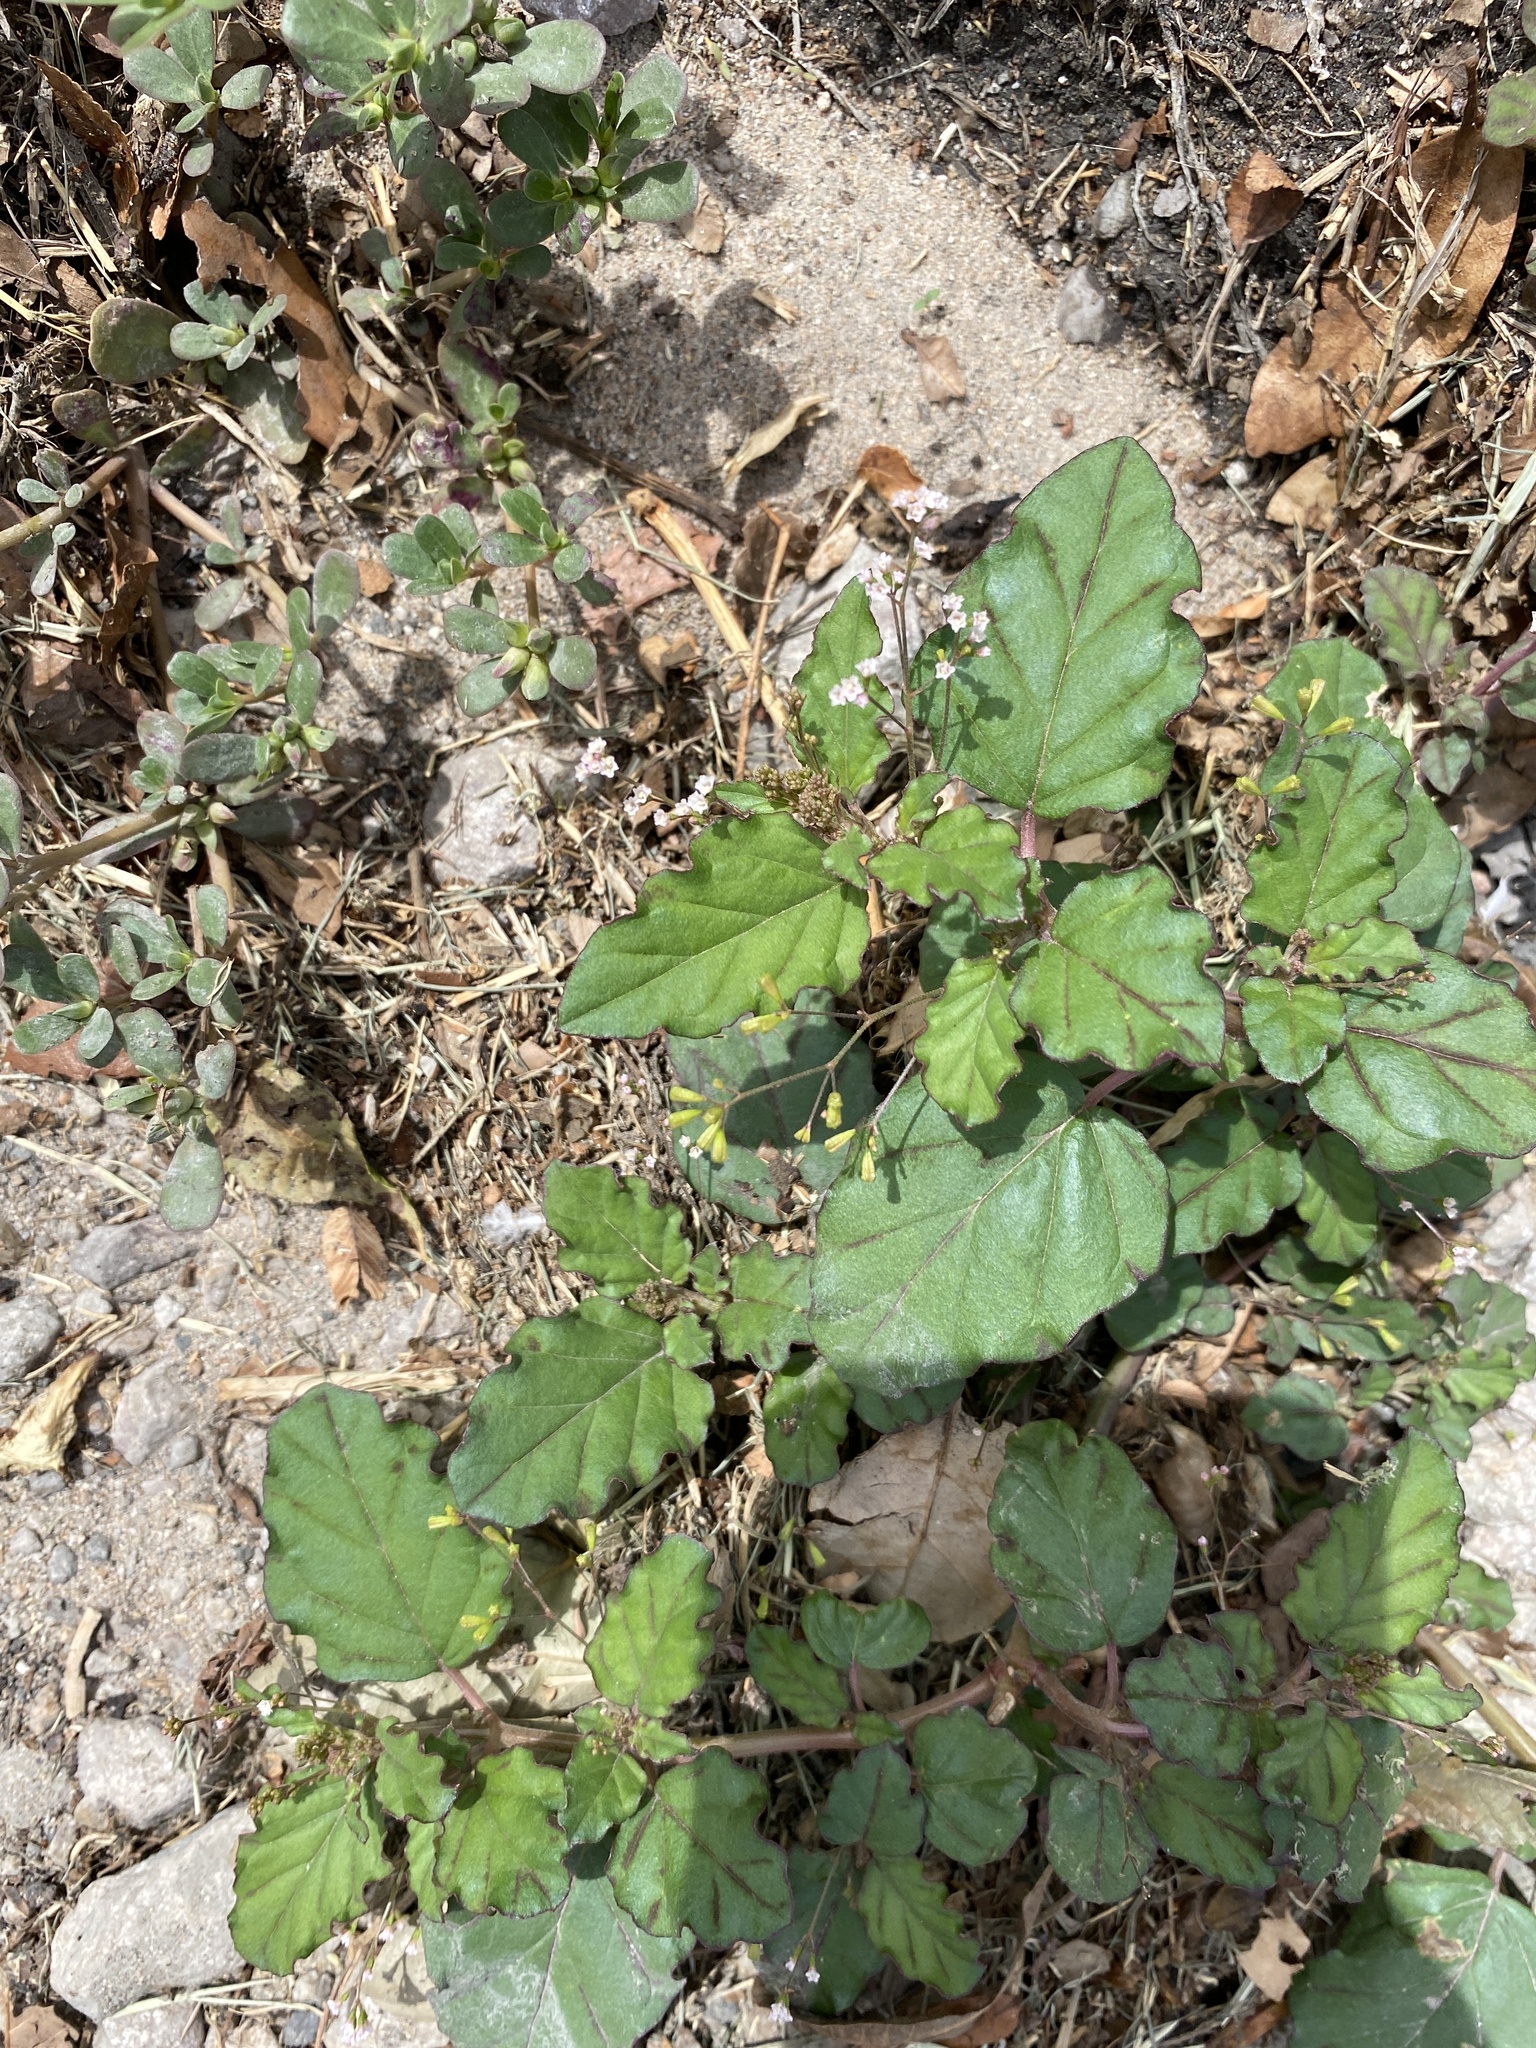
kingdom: Plantae
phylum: Tracheophyta
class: Magnoliopsida
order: Caryophyllales
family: Nyctaginaceae
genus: Boerhavia
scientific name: Boerhavia erecta
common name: Erect spiderling
